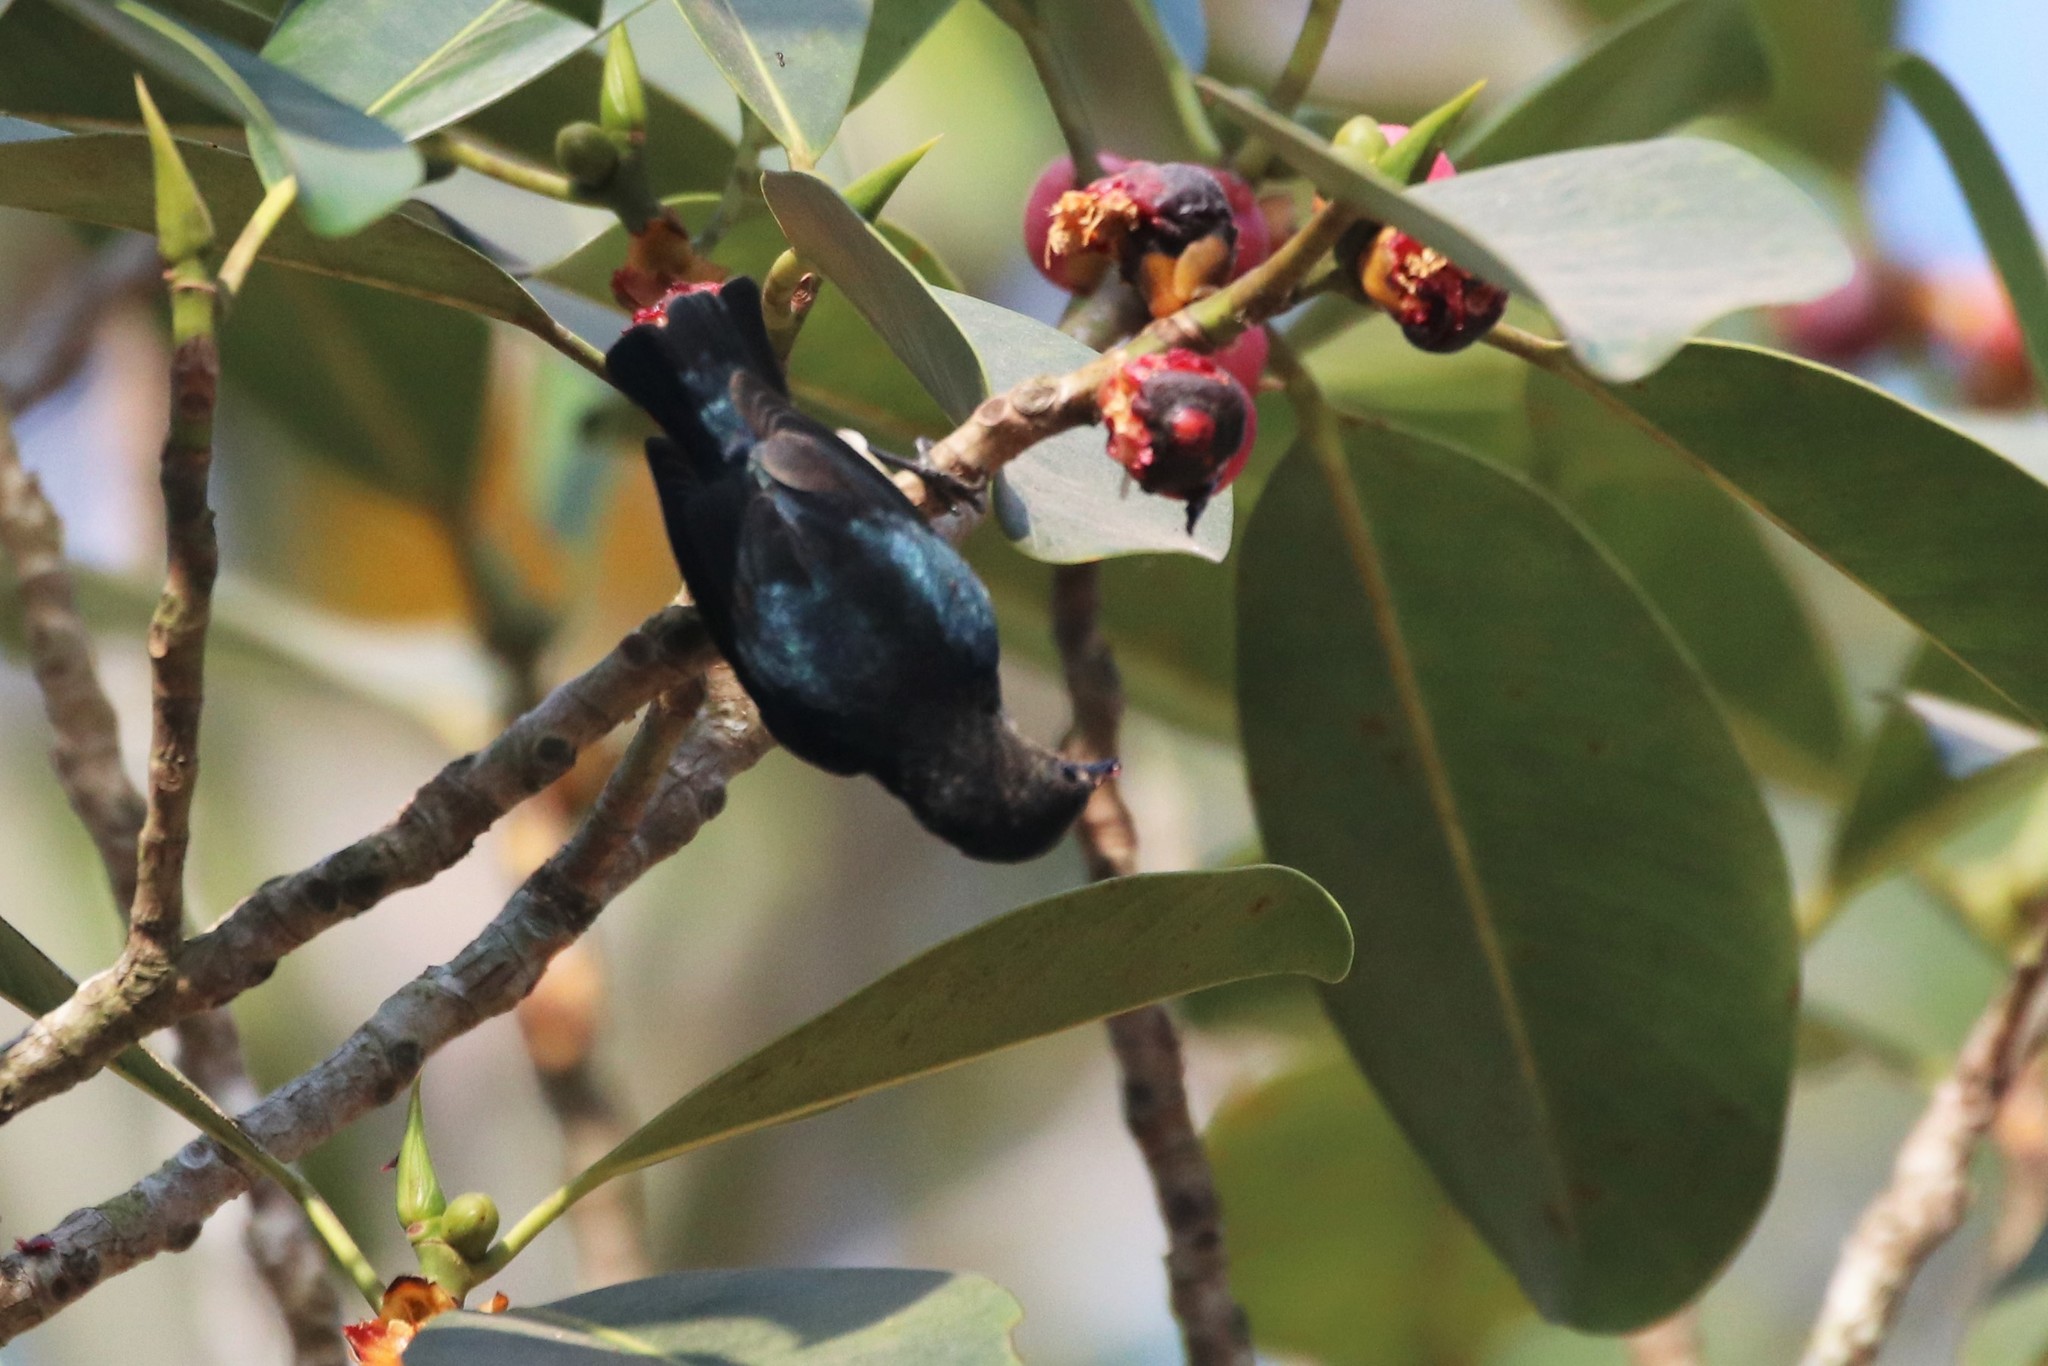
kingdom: Animalia
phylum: Chordata
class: Aves
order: Passeriformes
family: Dicaeidae
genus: Dicaeum
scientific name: Dicaeum ignipectus
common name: Fire-breasted flowerpecker
